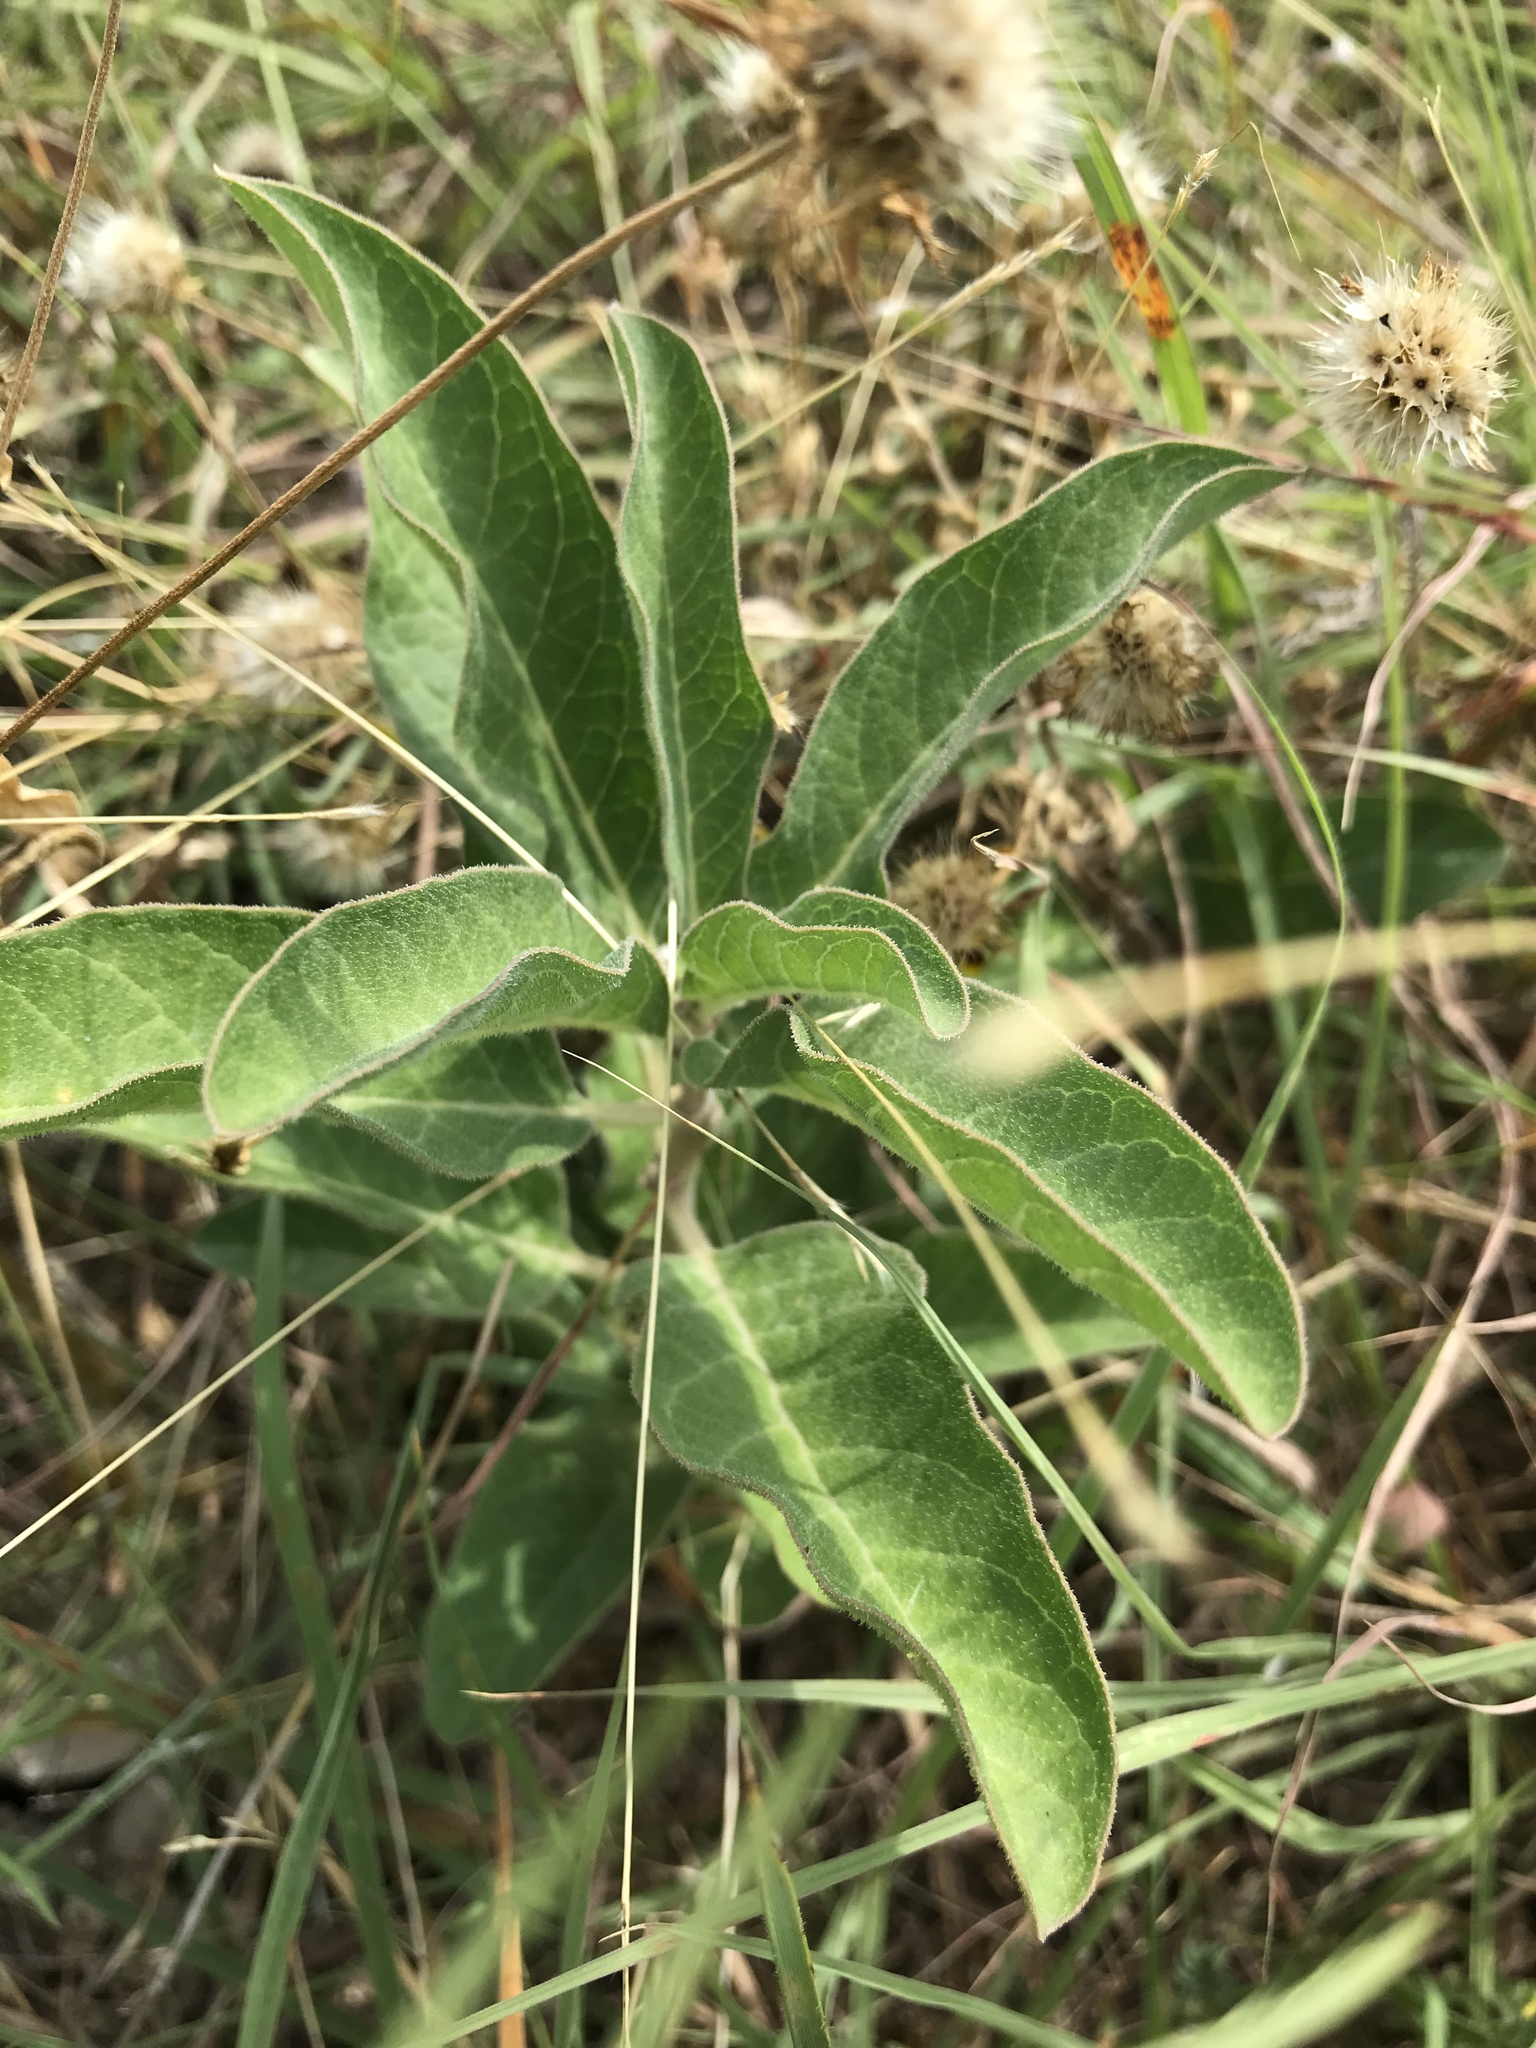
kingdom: Plantae
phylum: Tracheophyta
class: Magnoliopsida
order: Gentianales
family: Apocynaceae
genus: Asclepias
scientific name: Asclepias oenotheroides
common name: Zizotes milkweed
